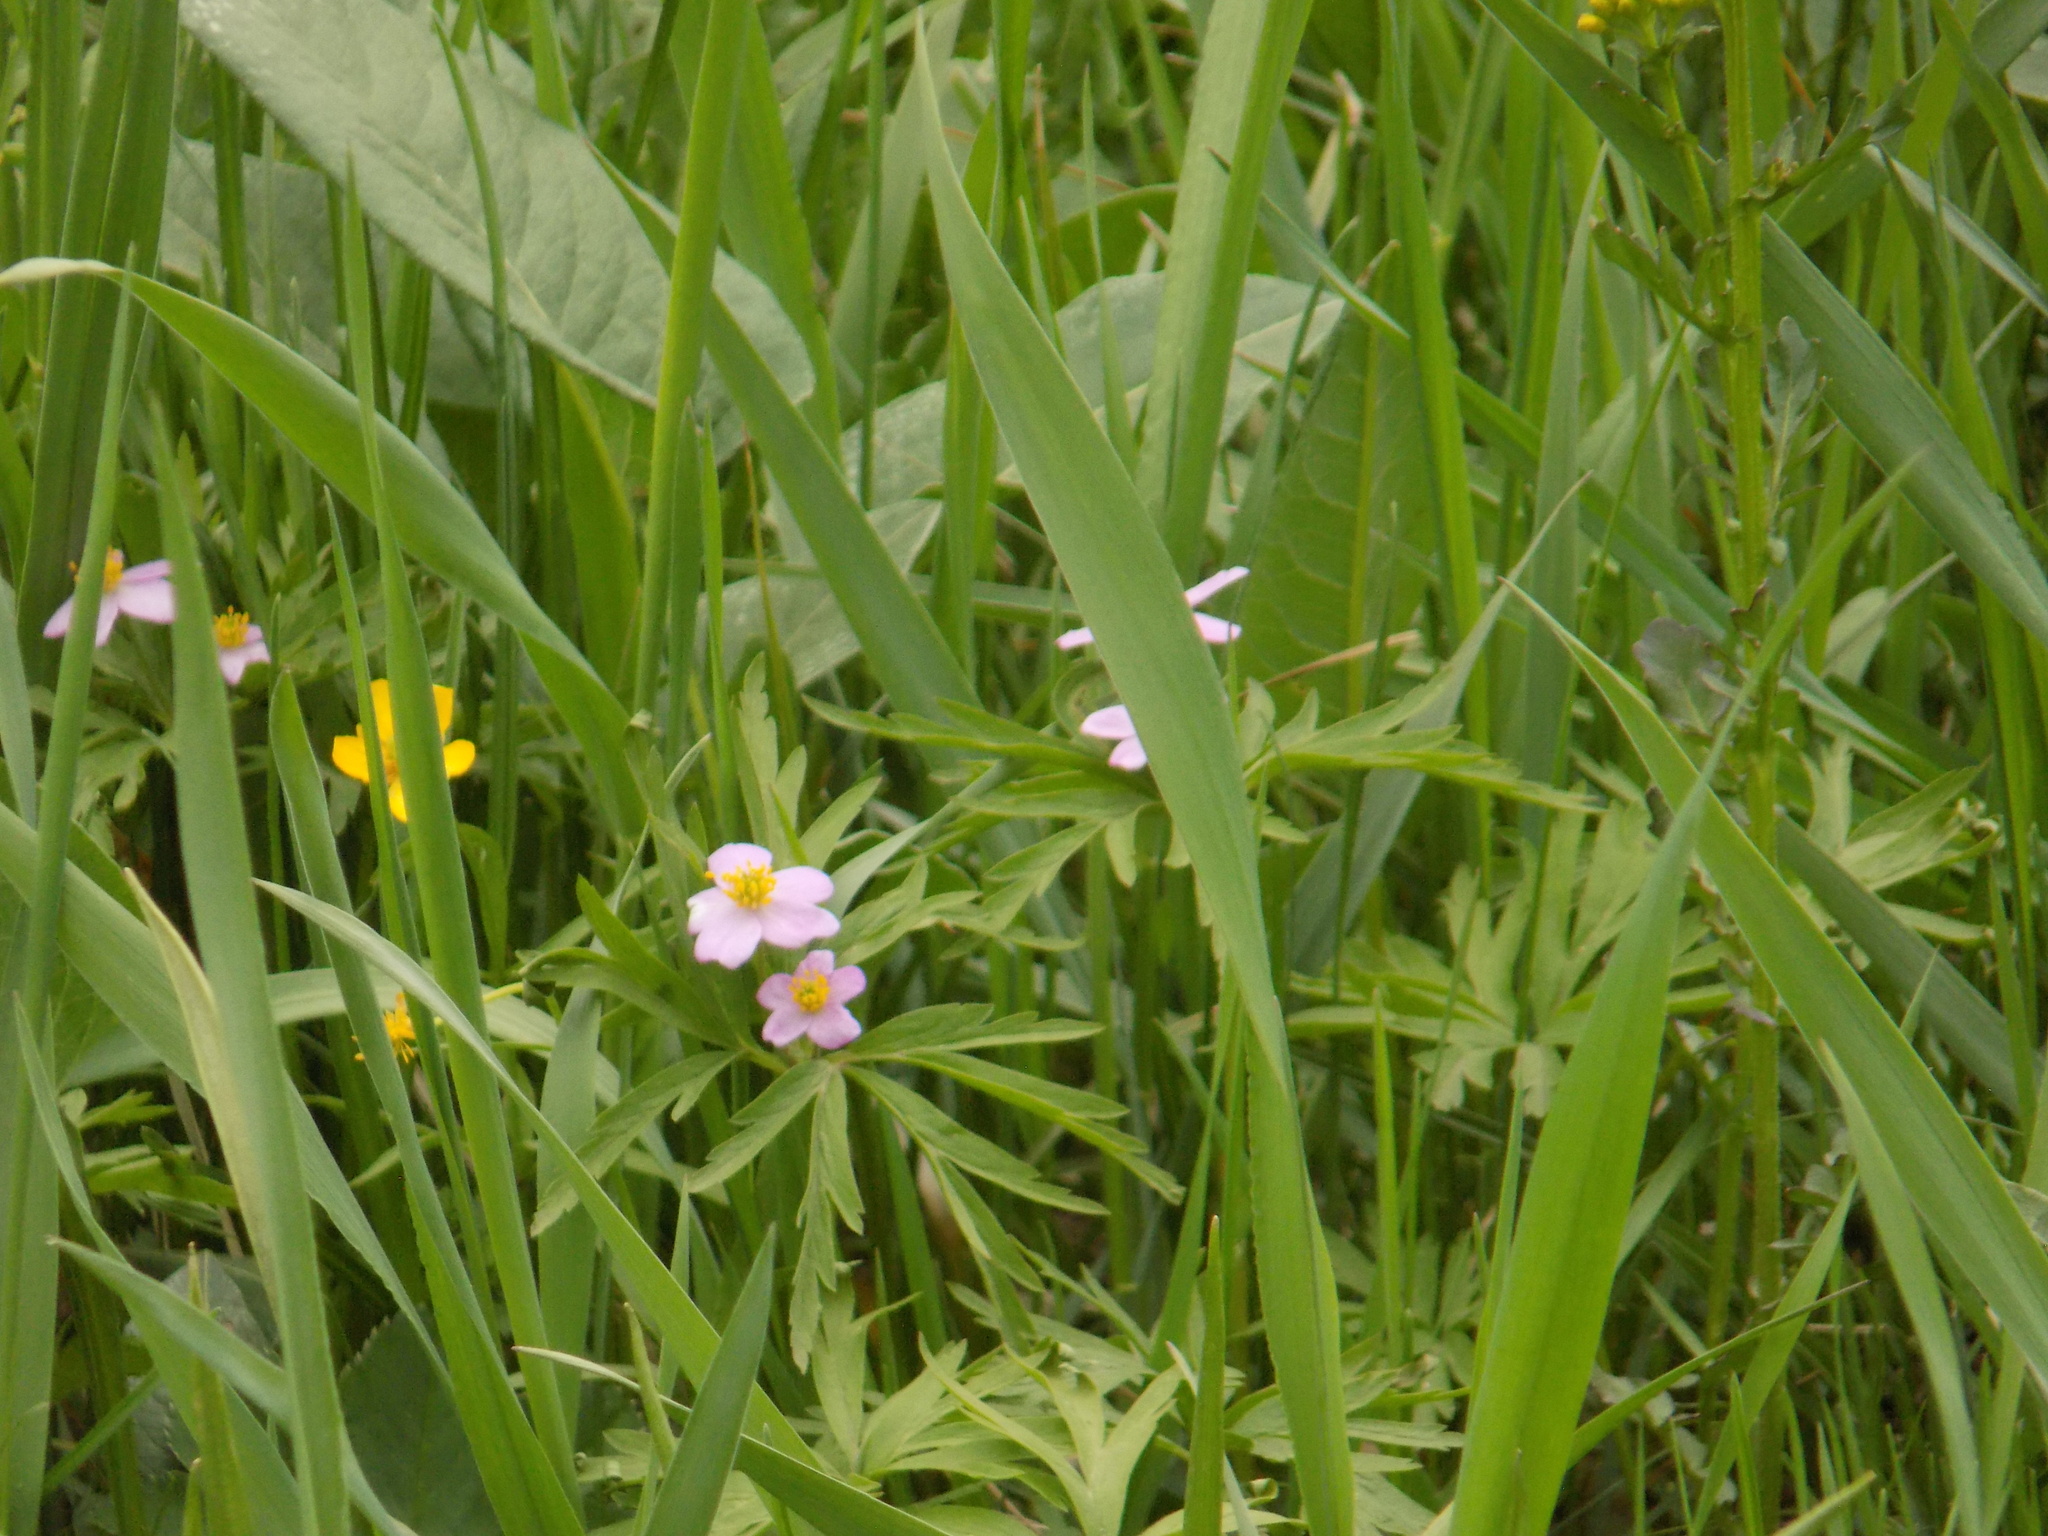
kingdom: Plantae
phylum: Tracheophyta
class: Magnoliopsida
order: Ranunculales
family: Ranunculaceae
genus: Anemone
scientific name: Anemone caerulea
